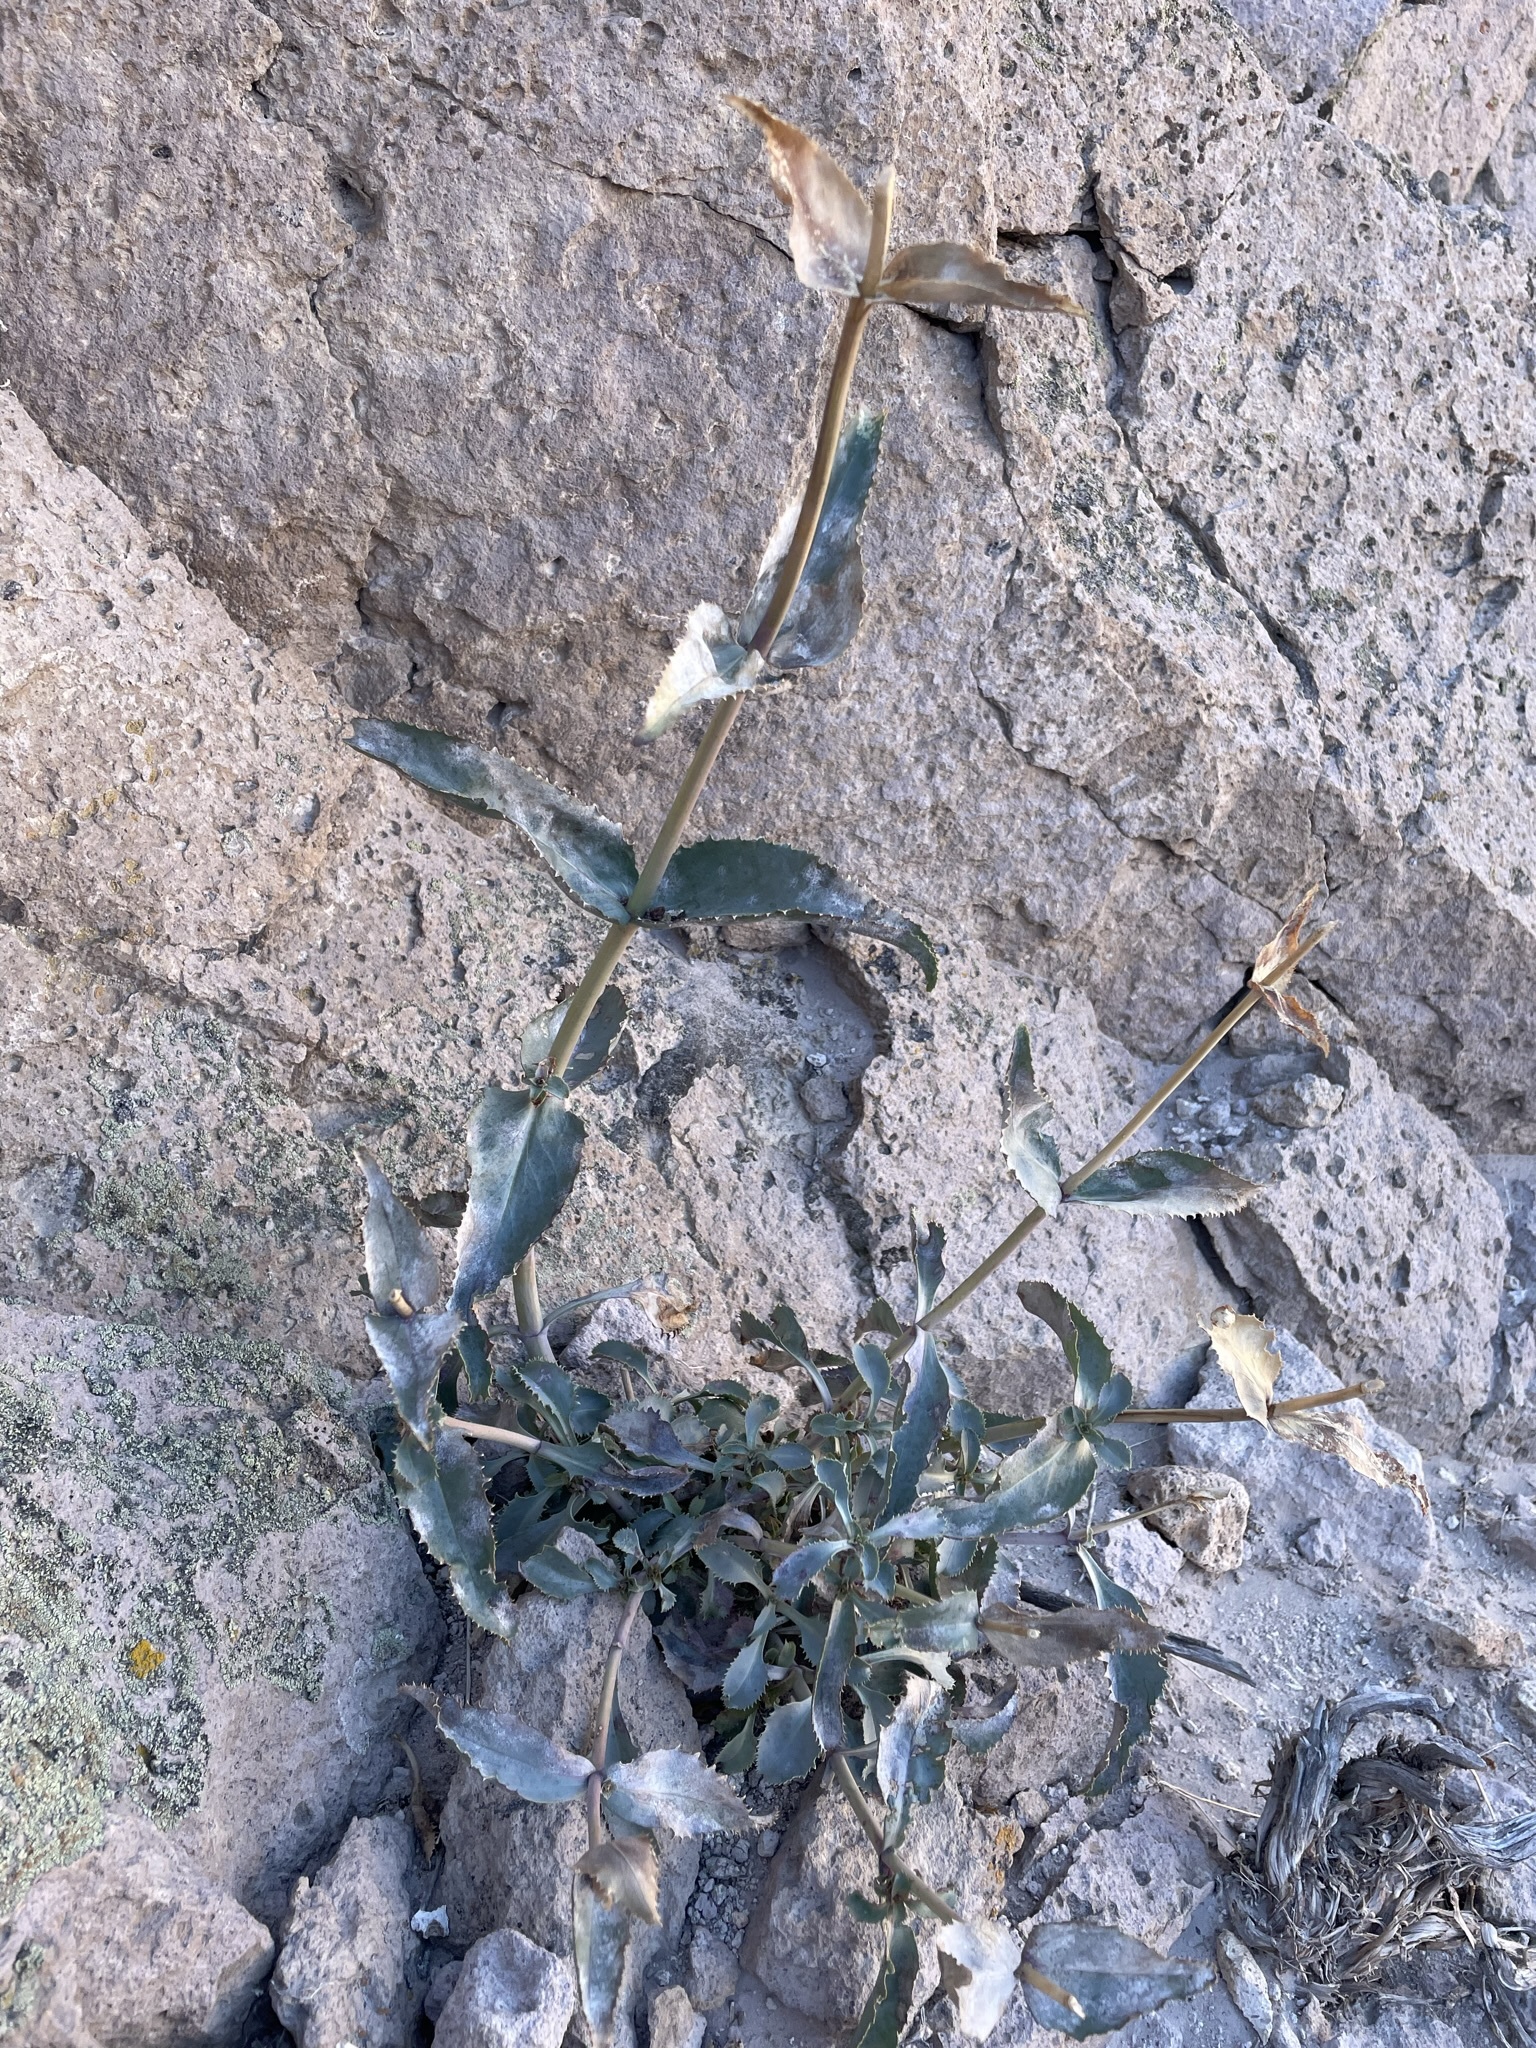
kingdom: Plantae
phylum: Tracheophyta
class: Magnoliopsida
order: Lamiales
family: Plantaginaceae
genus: Penstemon
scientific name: Penstemon palmeri
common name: Palmer penstemon
